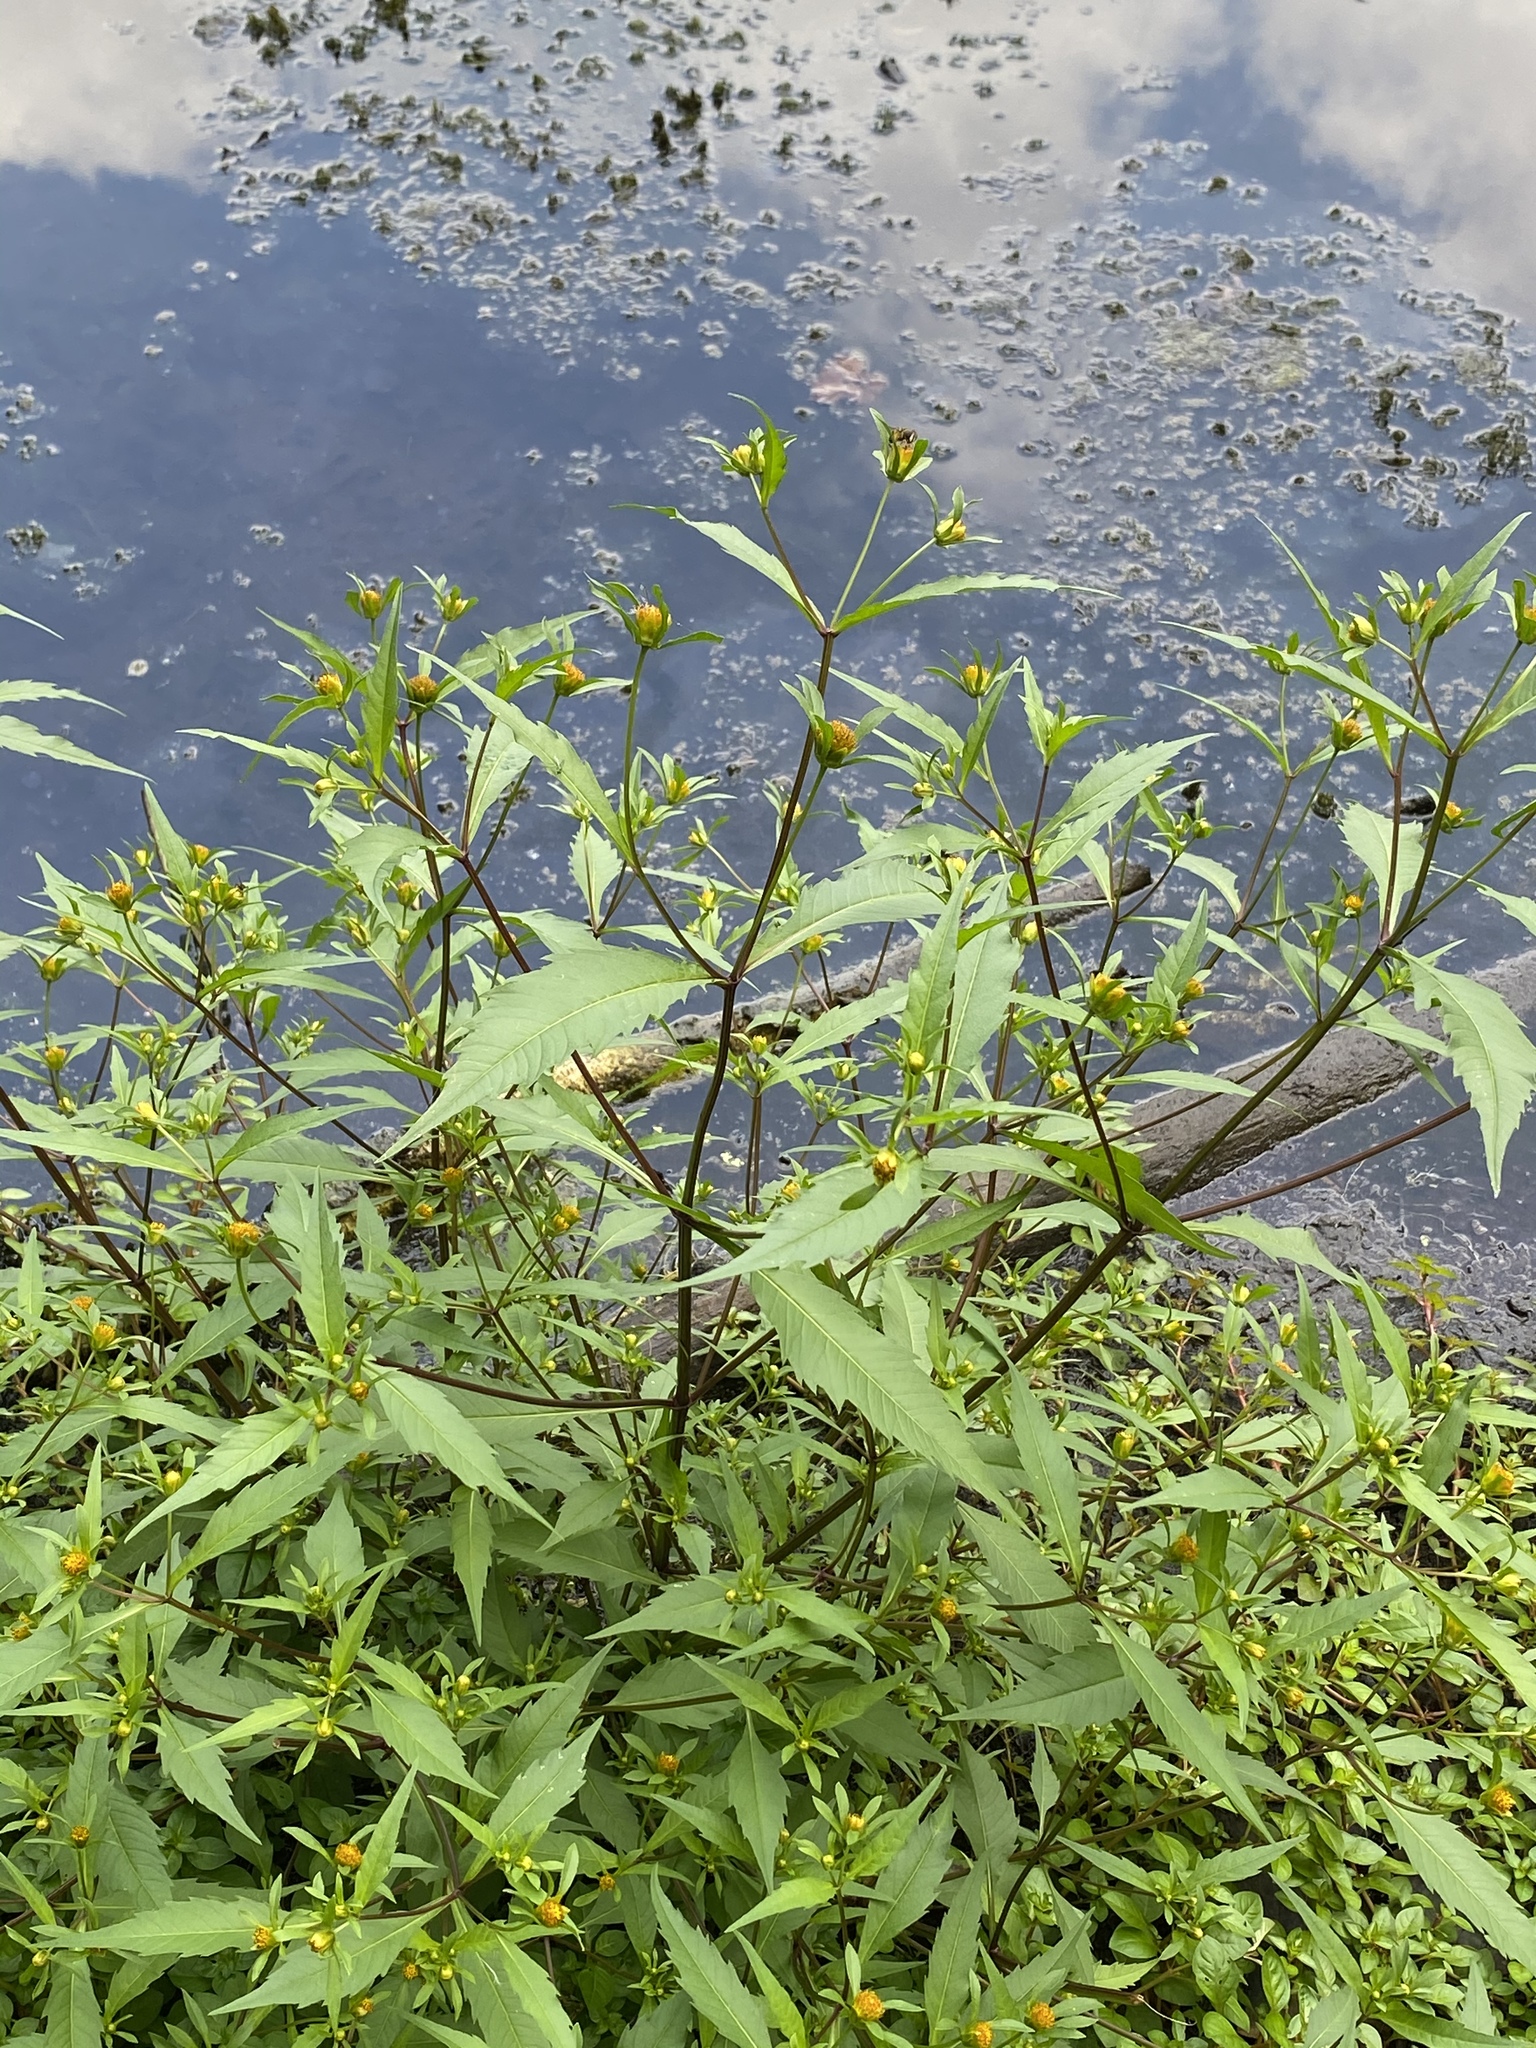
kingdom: Plantae
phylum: Tracheophyta
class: Magnoliopsida
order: Asterales
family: Asteraceae
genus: Bidens
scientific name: Bidens connata
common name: London bur-marigold
